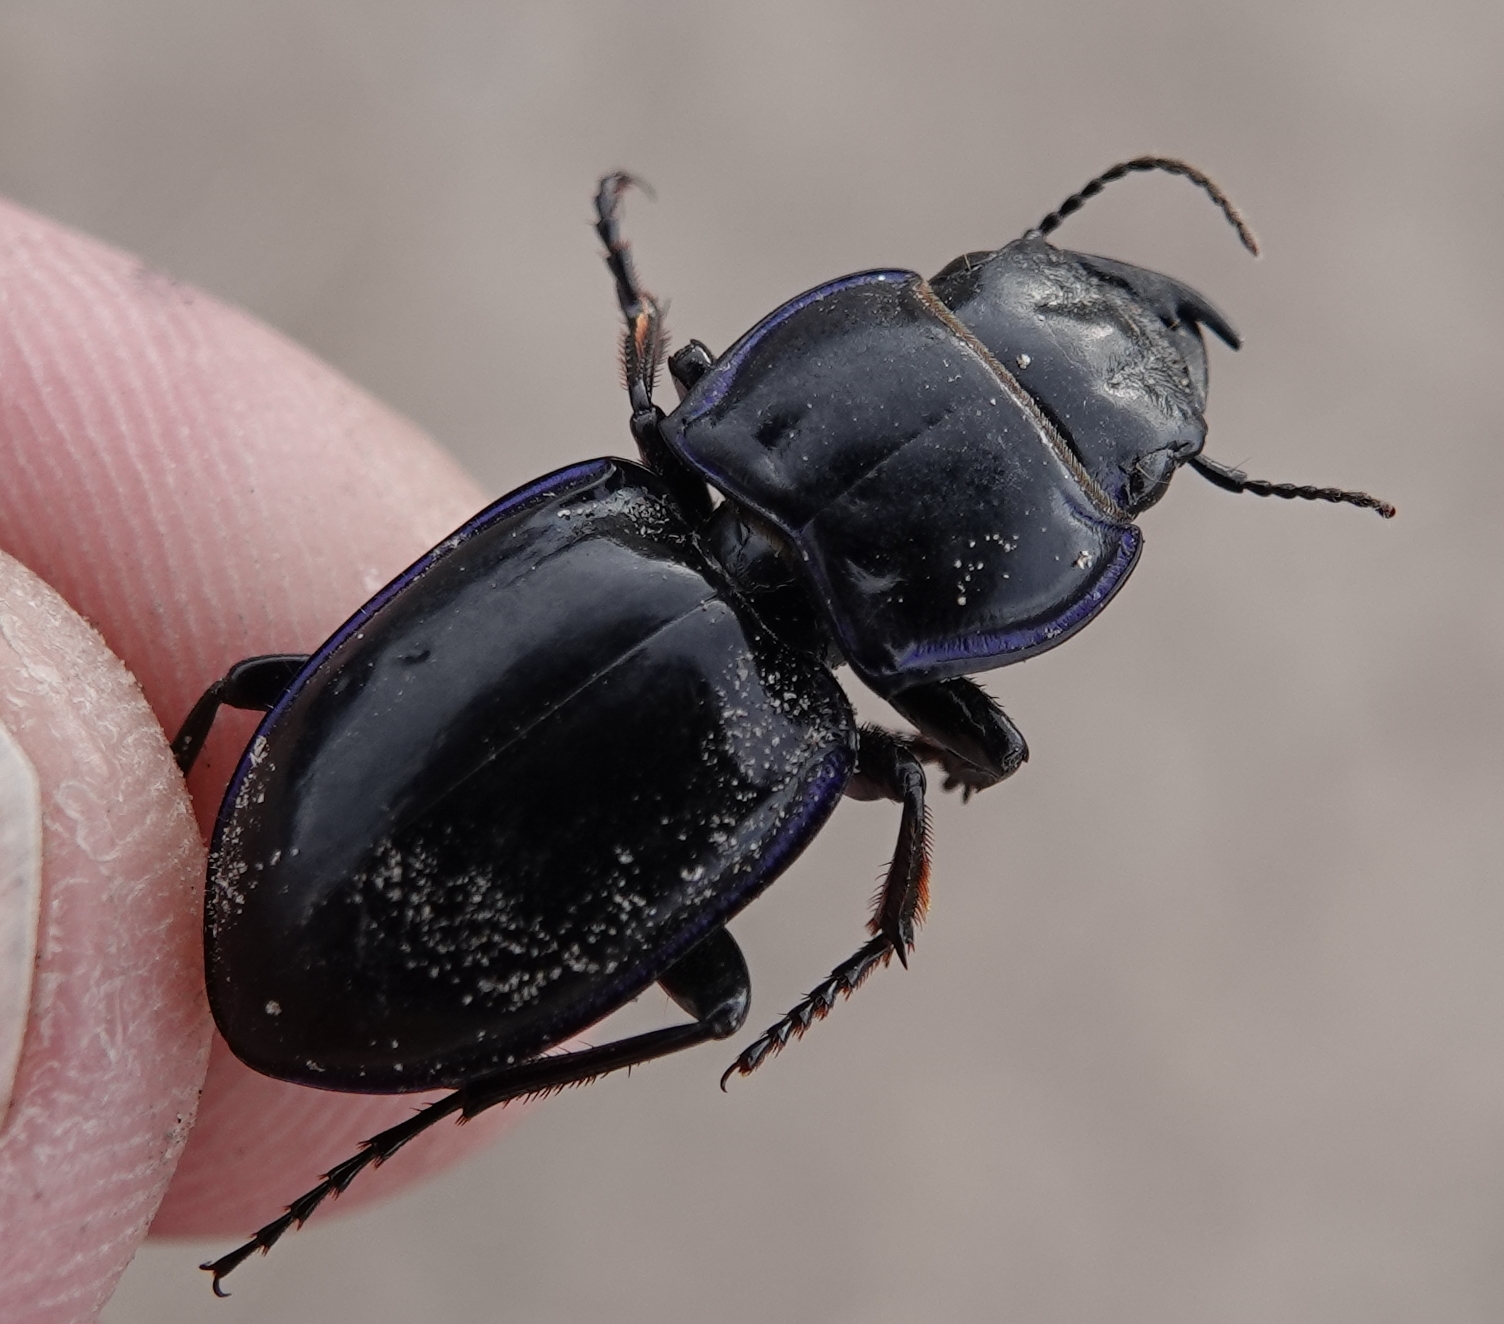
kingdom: Animalia
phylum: Arthropoda
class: Insecta
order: Coleoptera
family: Carabidae
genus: Pasimachus
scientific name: Pasimachus elongatus
